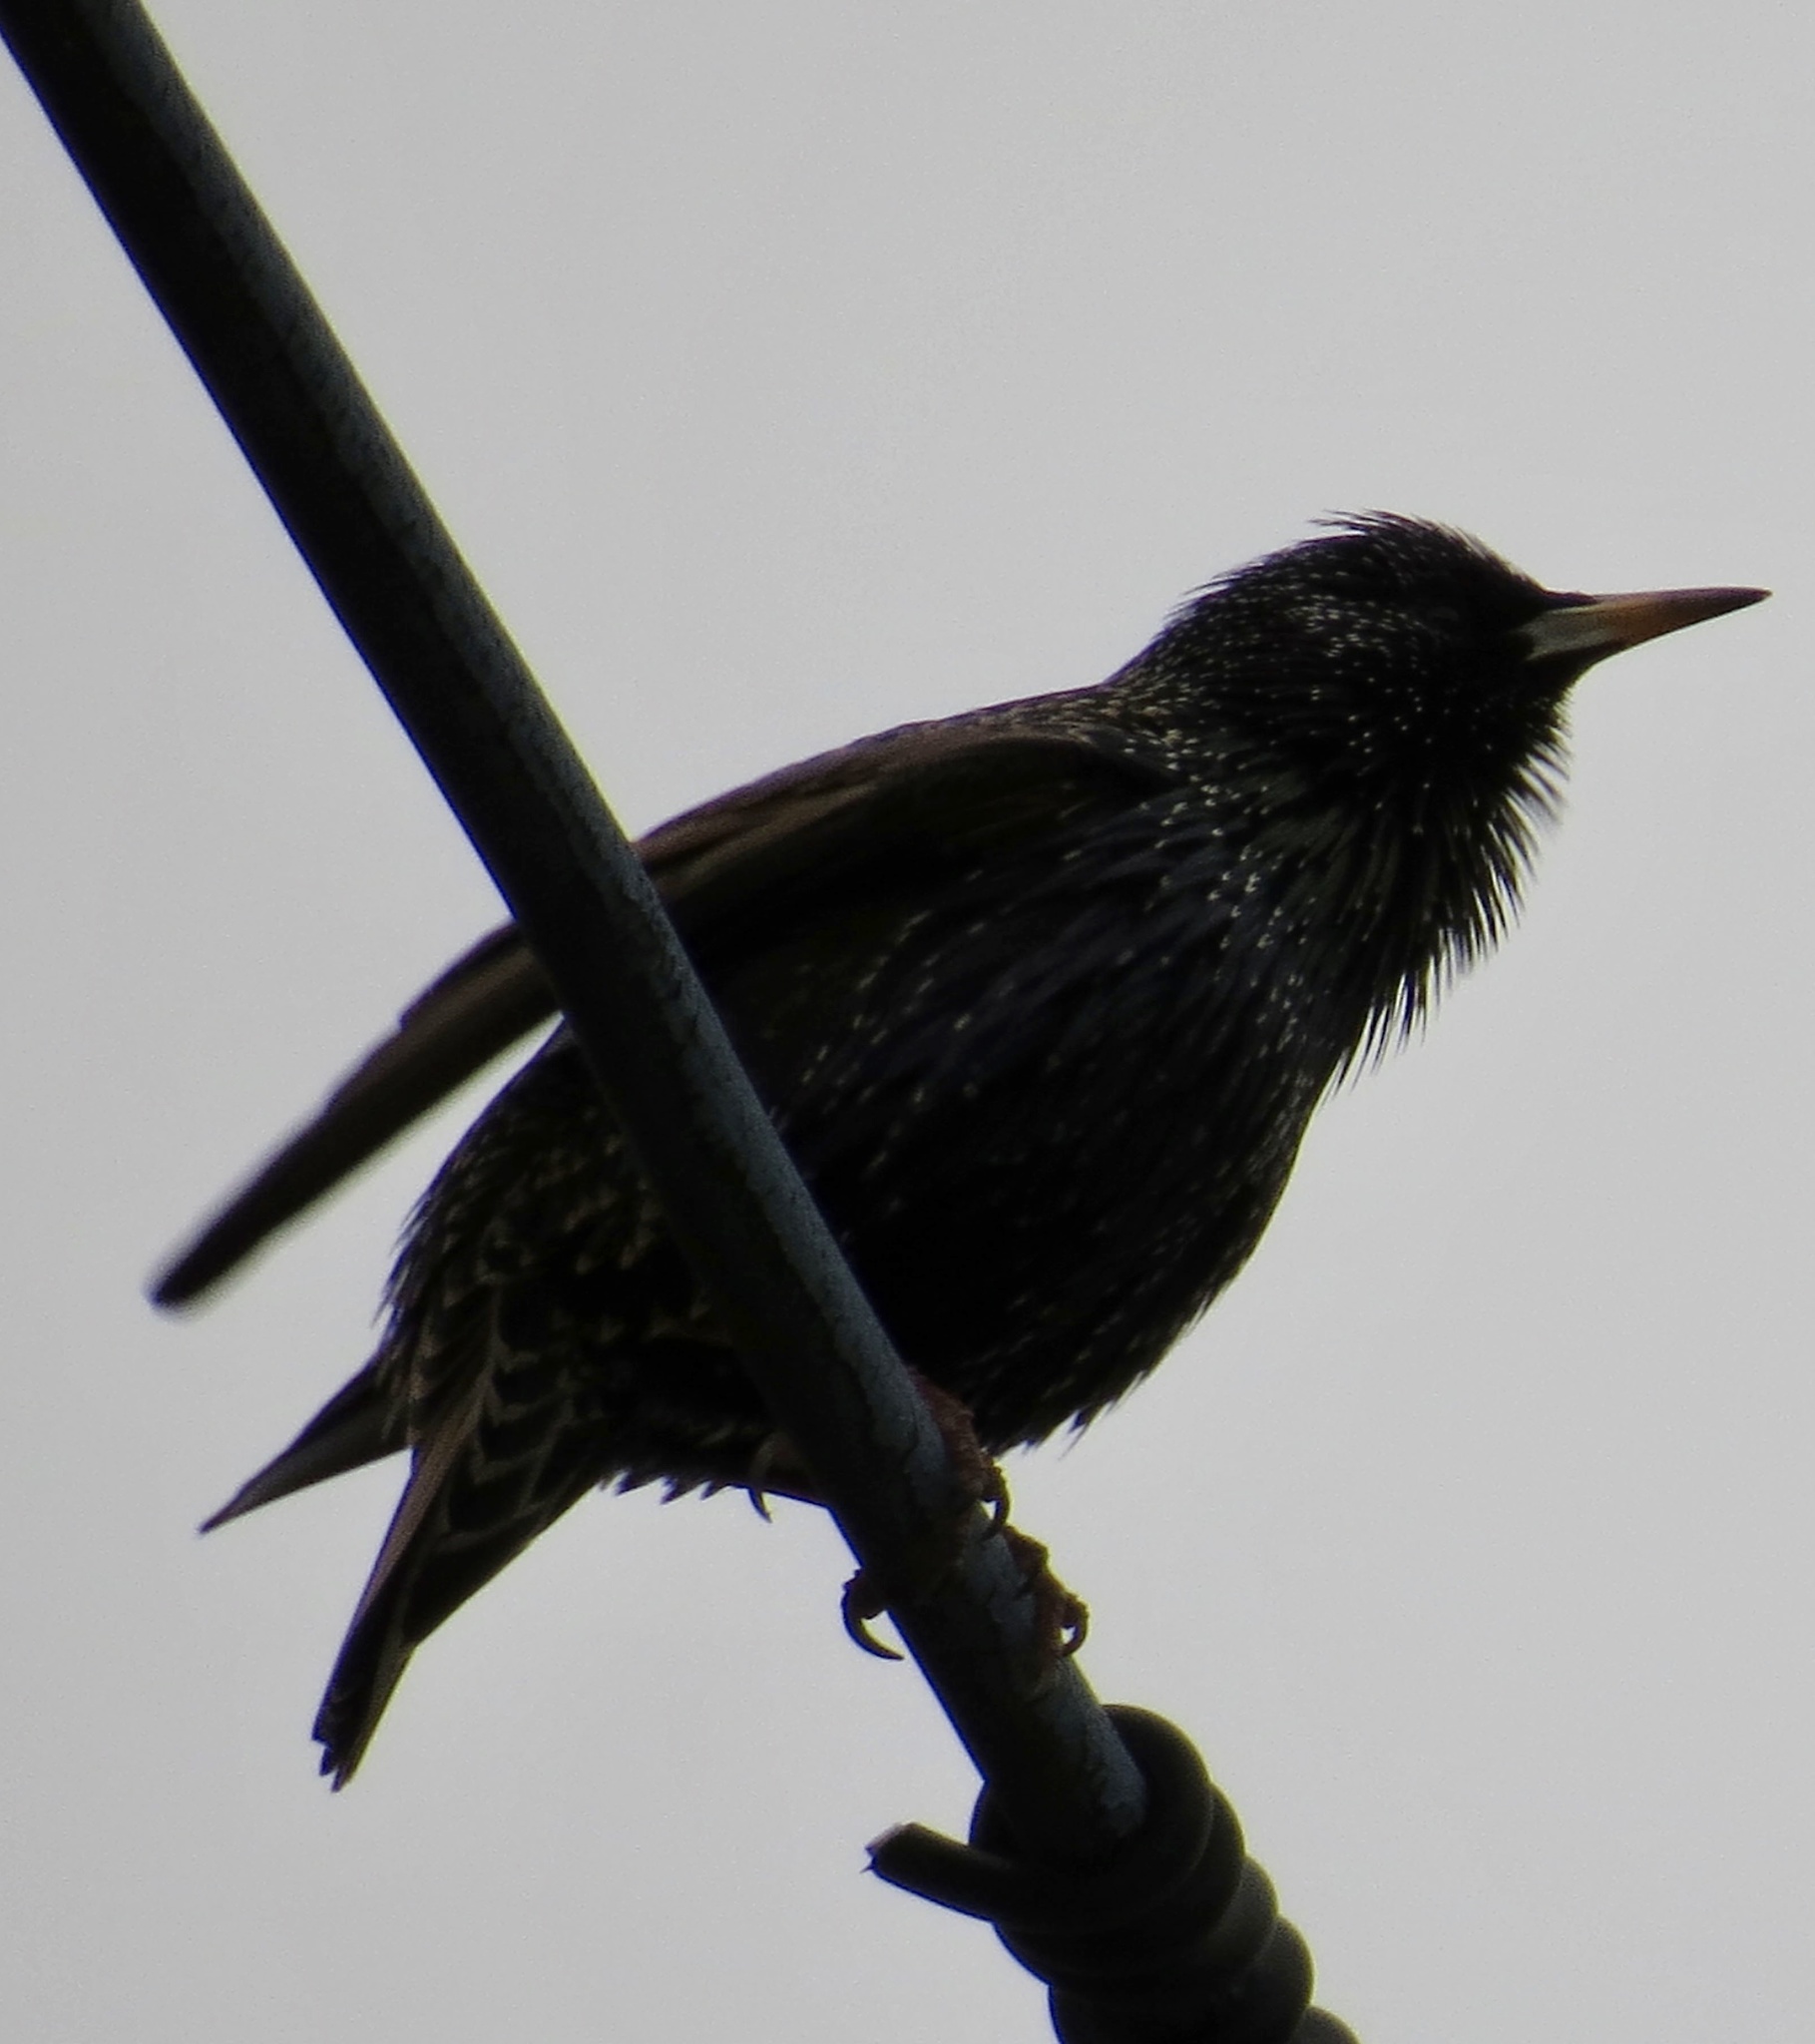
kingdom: Animalia
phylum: Chordata
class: Aves
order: Passeriformes
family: Sturnidae
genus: Sturnus
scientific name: Sturnus vulgaris
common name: Common starling
